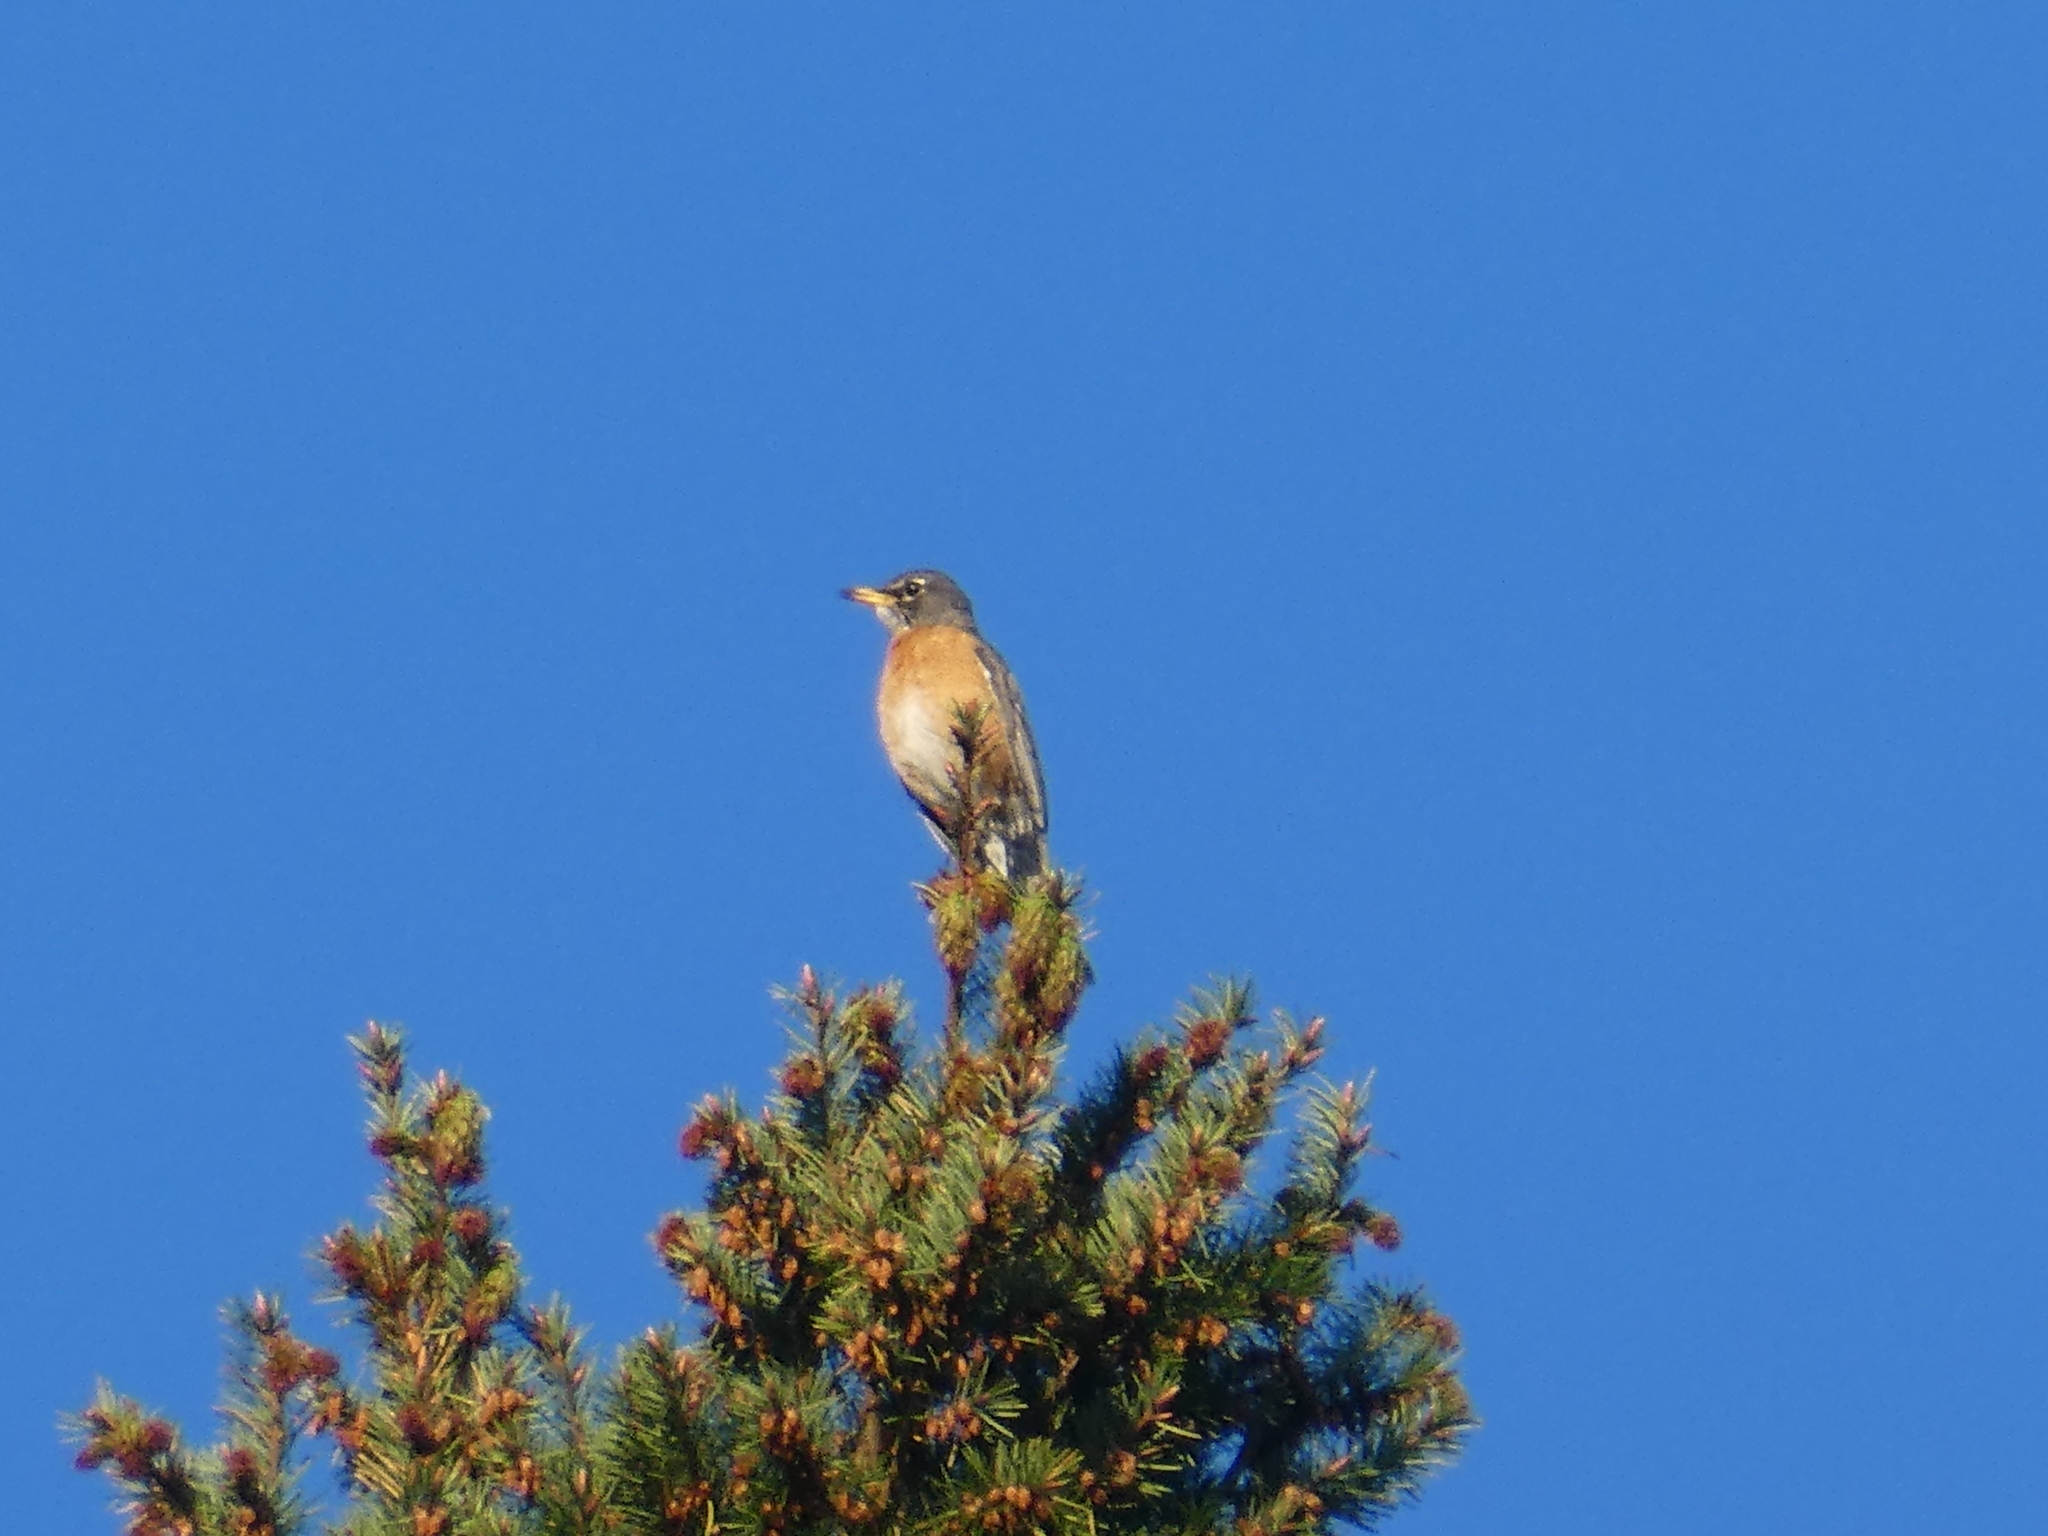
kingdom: Animalia
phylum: Chordata
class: Aves
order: Passeriformes
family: Turdidae
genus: Turdus
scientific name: Turdus migratorius
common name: American robin
